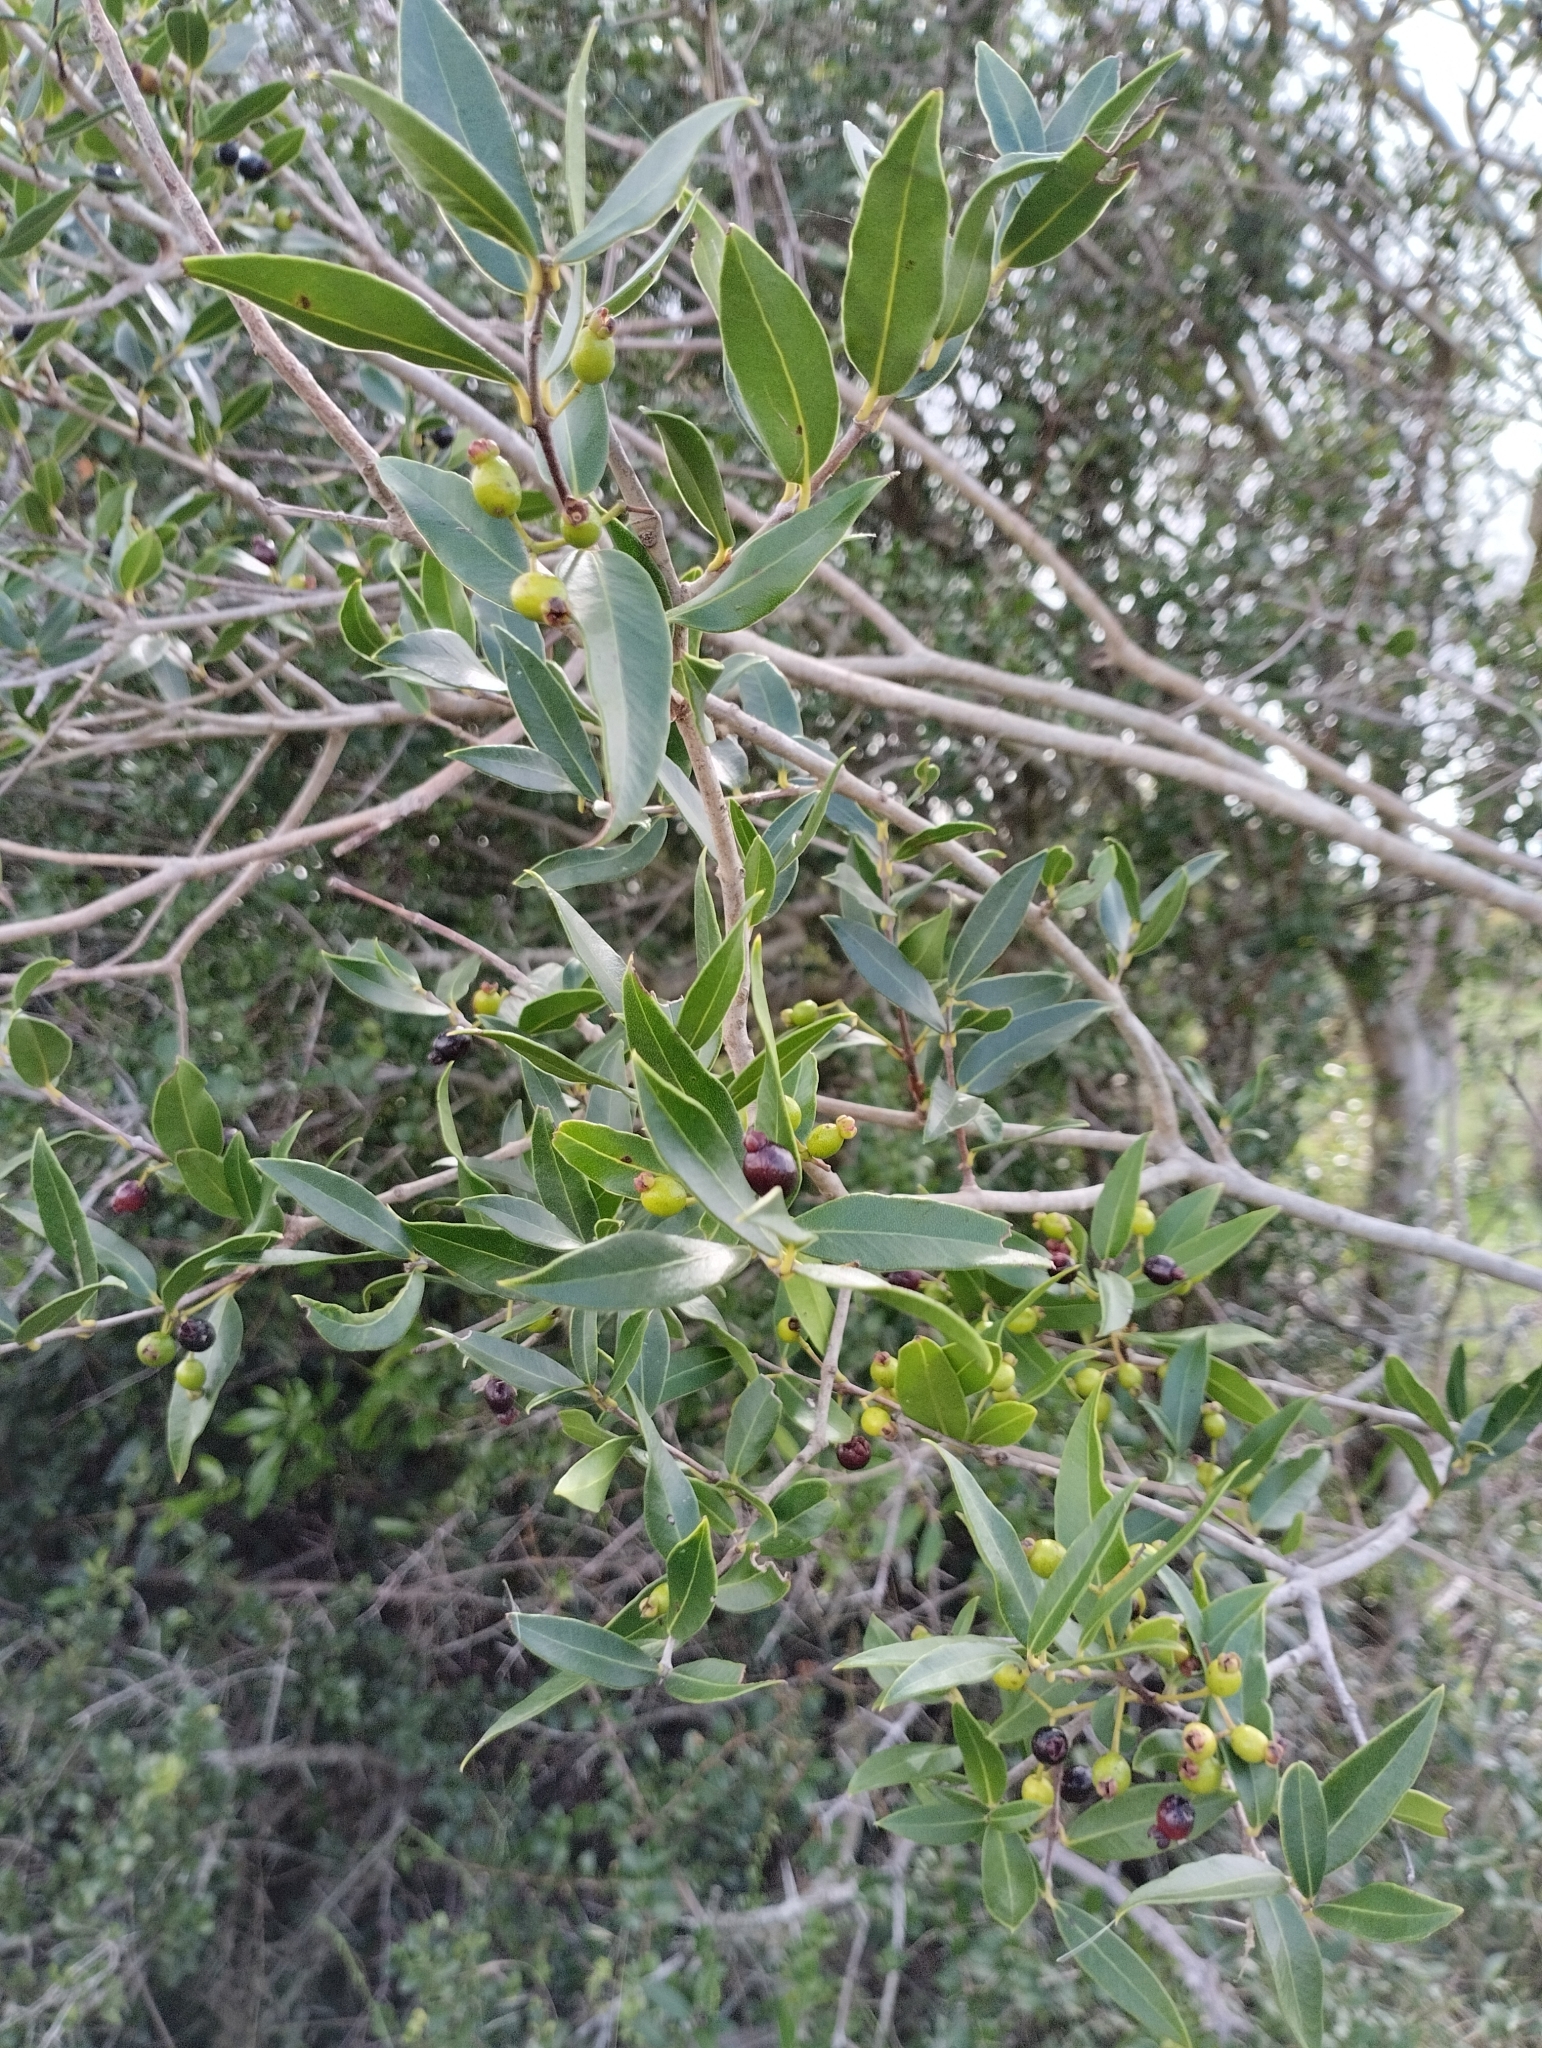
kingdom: Plantae
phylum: Tracheophyta
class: Magnoliopsida
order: Myrtales
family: Myrtaceae
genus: Myrcianthes
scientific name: Myrcianthes cisplatensis
